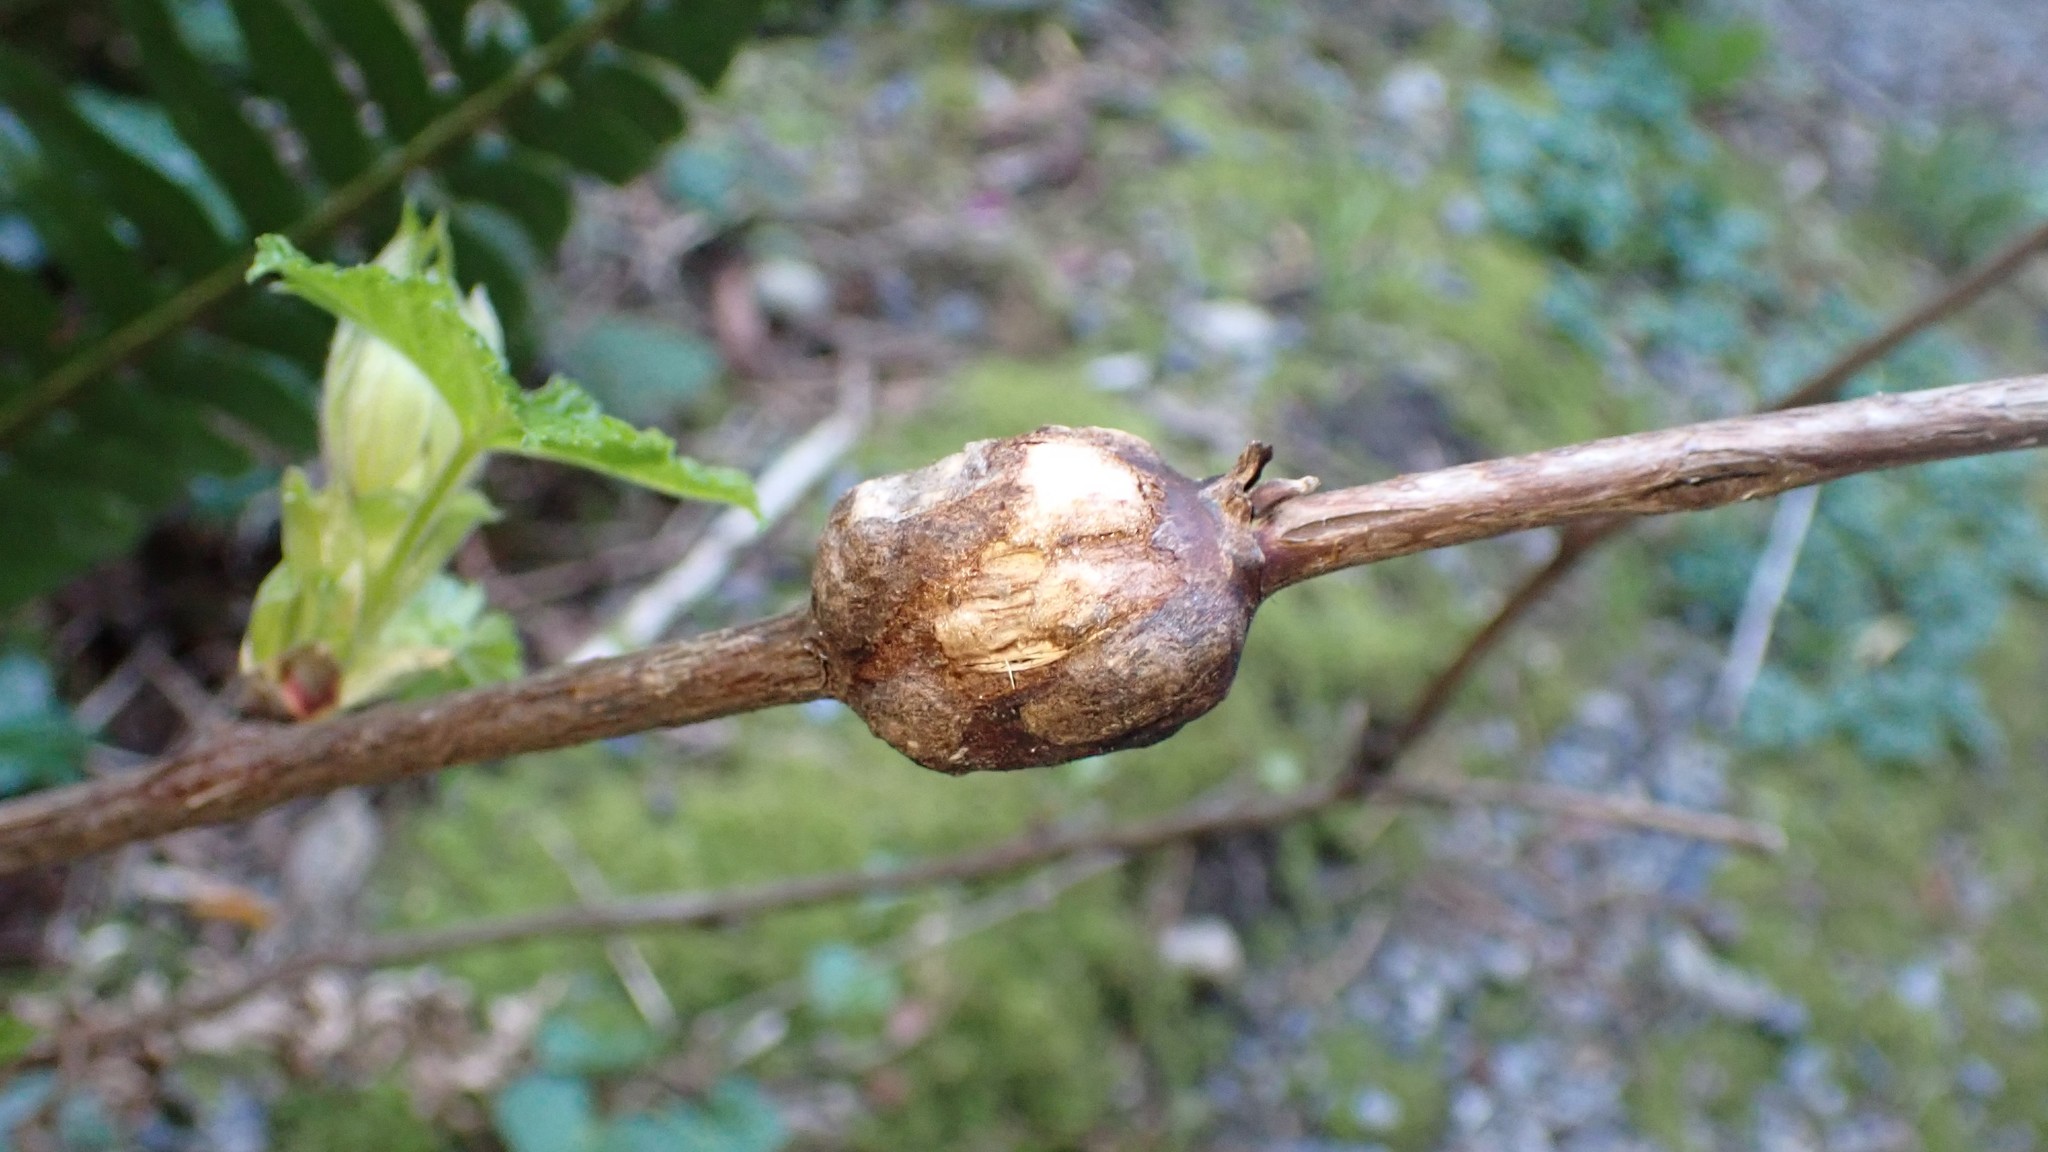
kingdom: Animalia
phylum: Arthropoda
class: Insecta
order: Hymenoptera
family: Cynipidae
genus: Diastrophus
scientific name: Diastrophus
